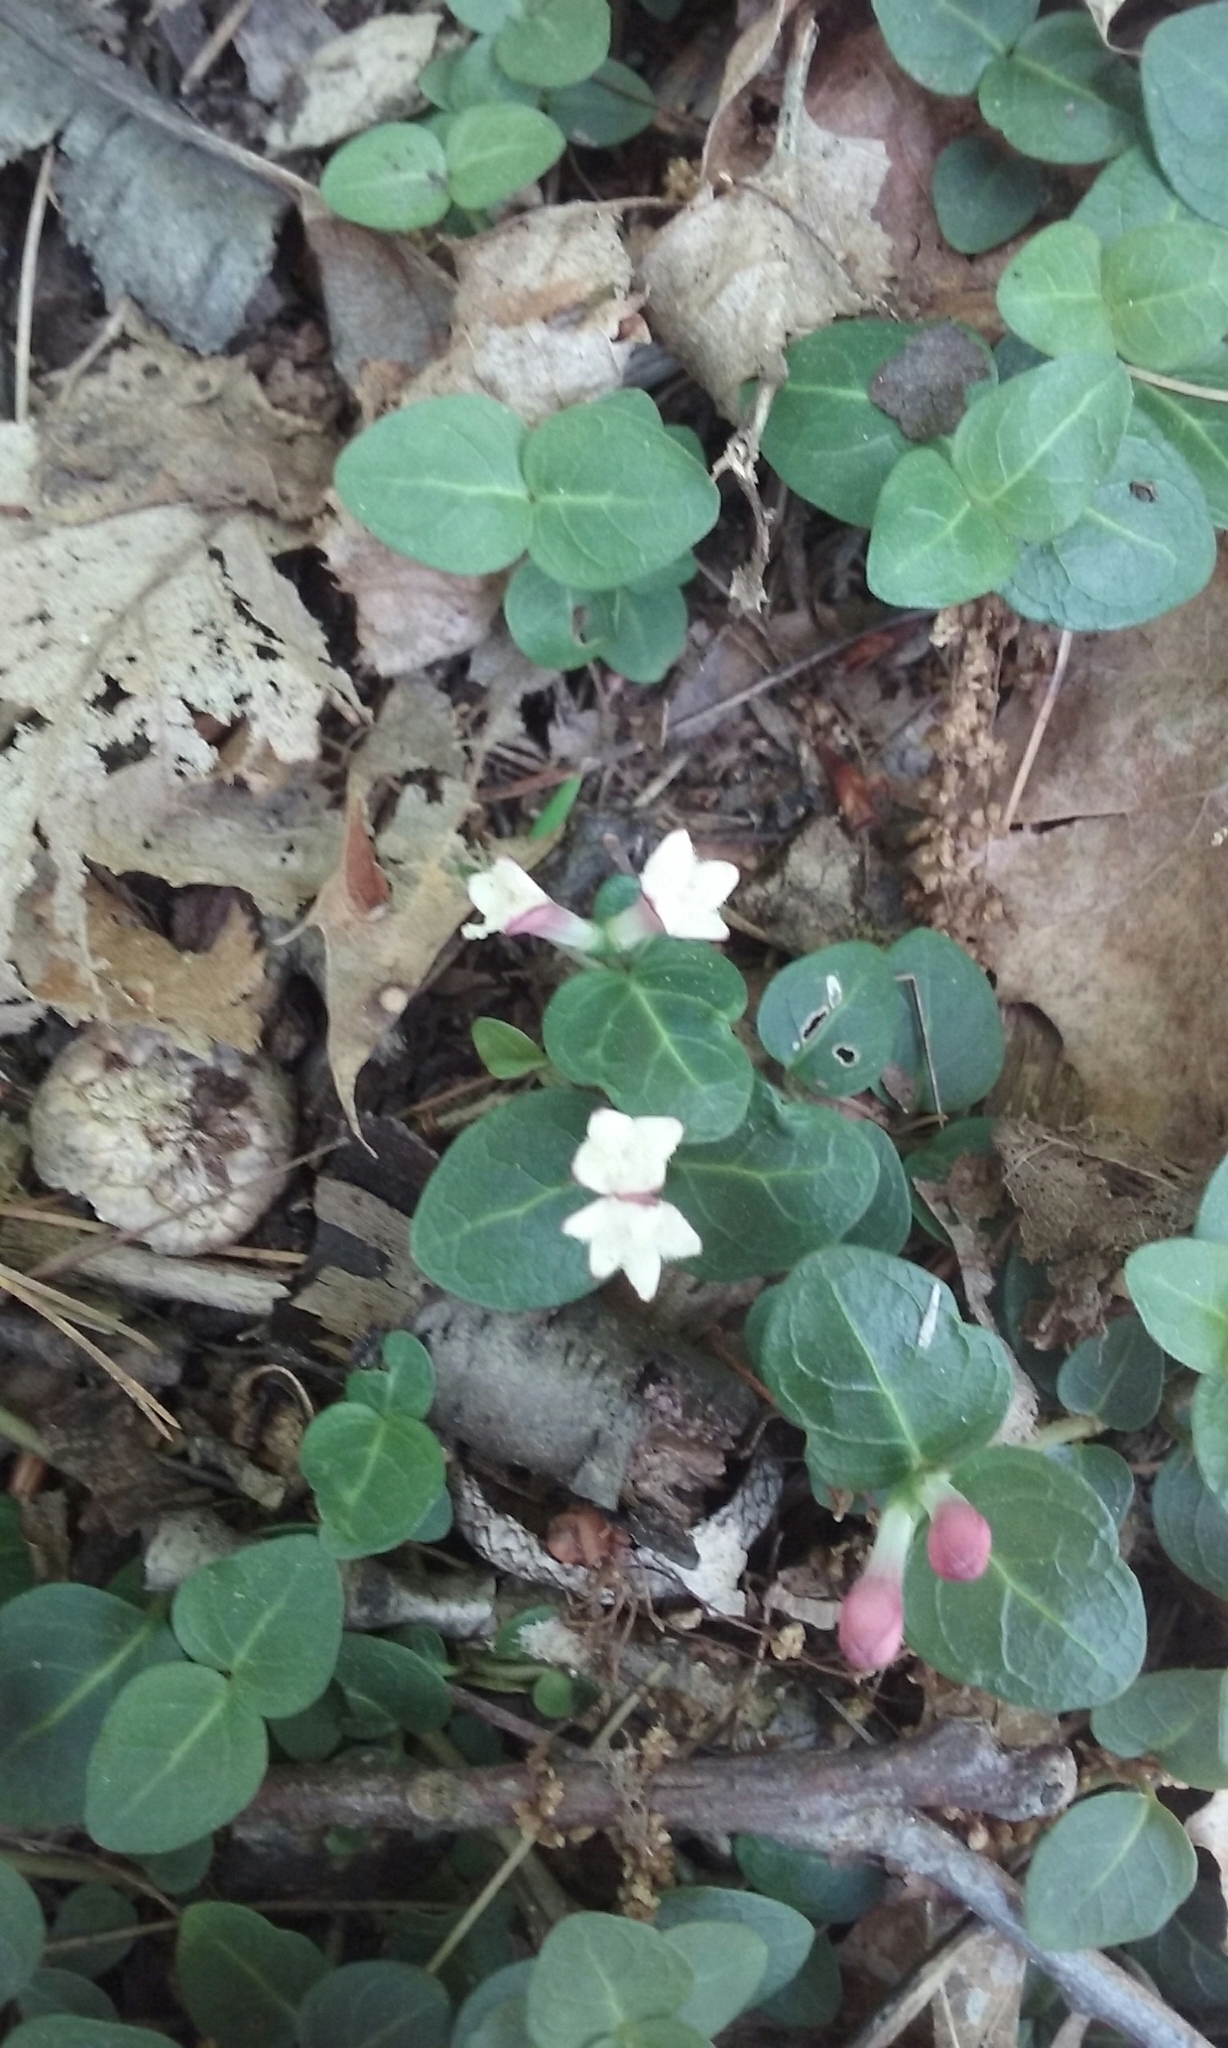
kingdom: Plantae
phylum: Tracheophyta
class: Magnoliopsida
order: Gentianales
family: Rubiaceae
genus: Mitchella
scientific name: Mitchella repens
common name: Partridge-berry
